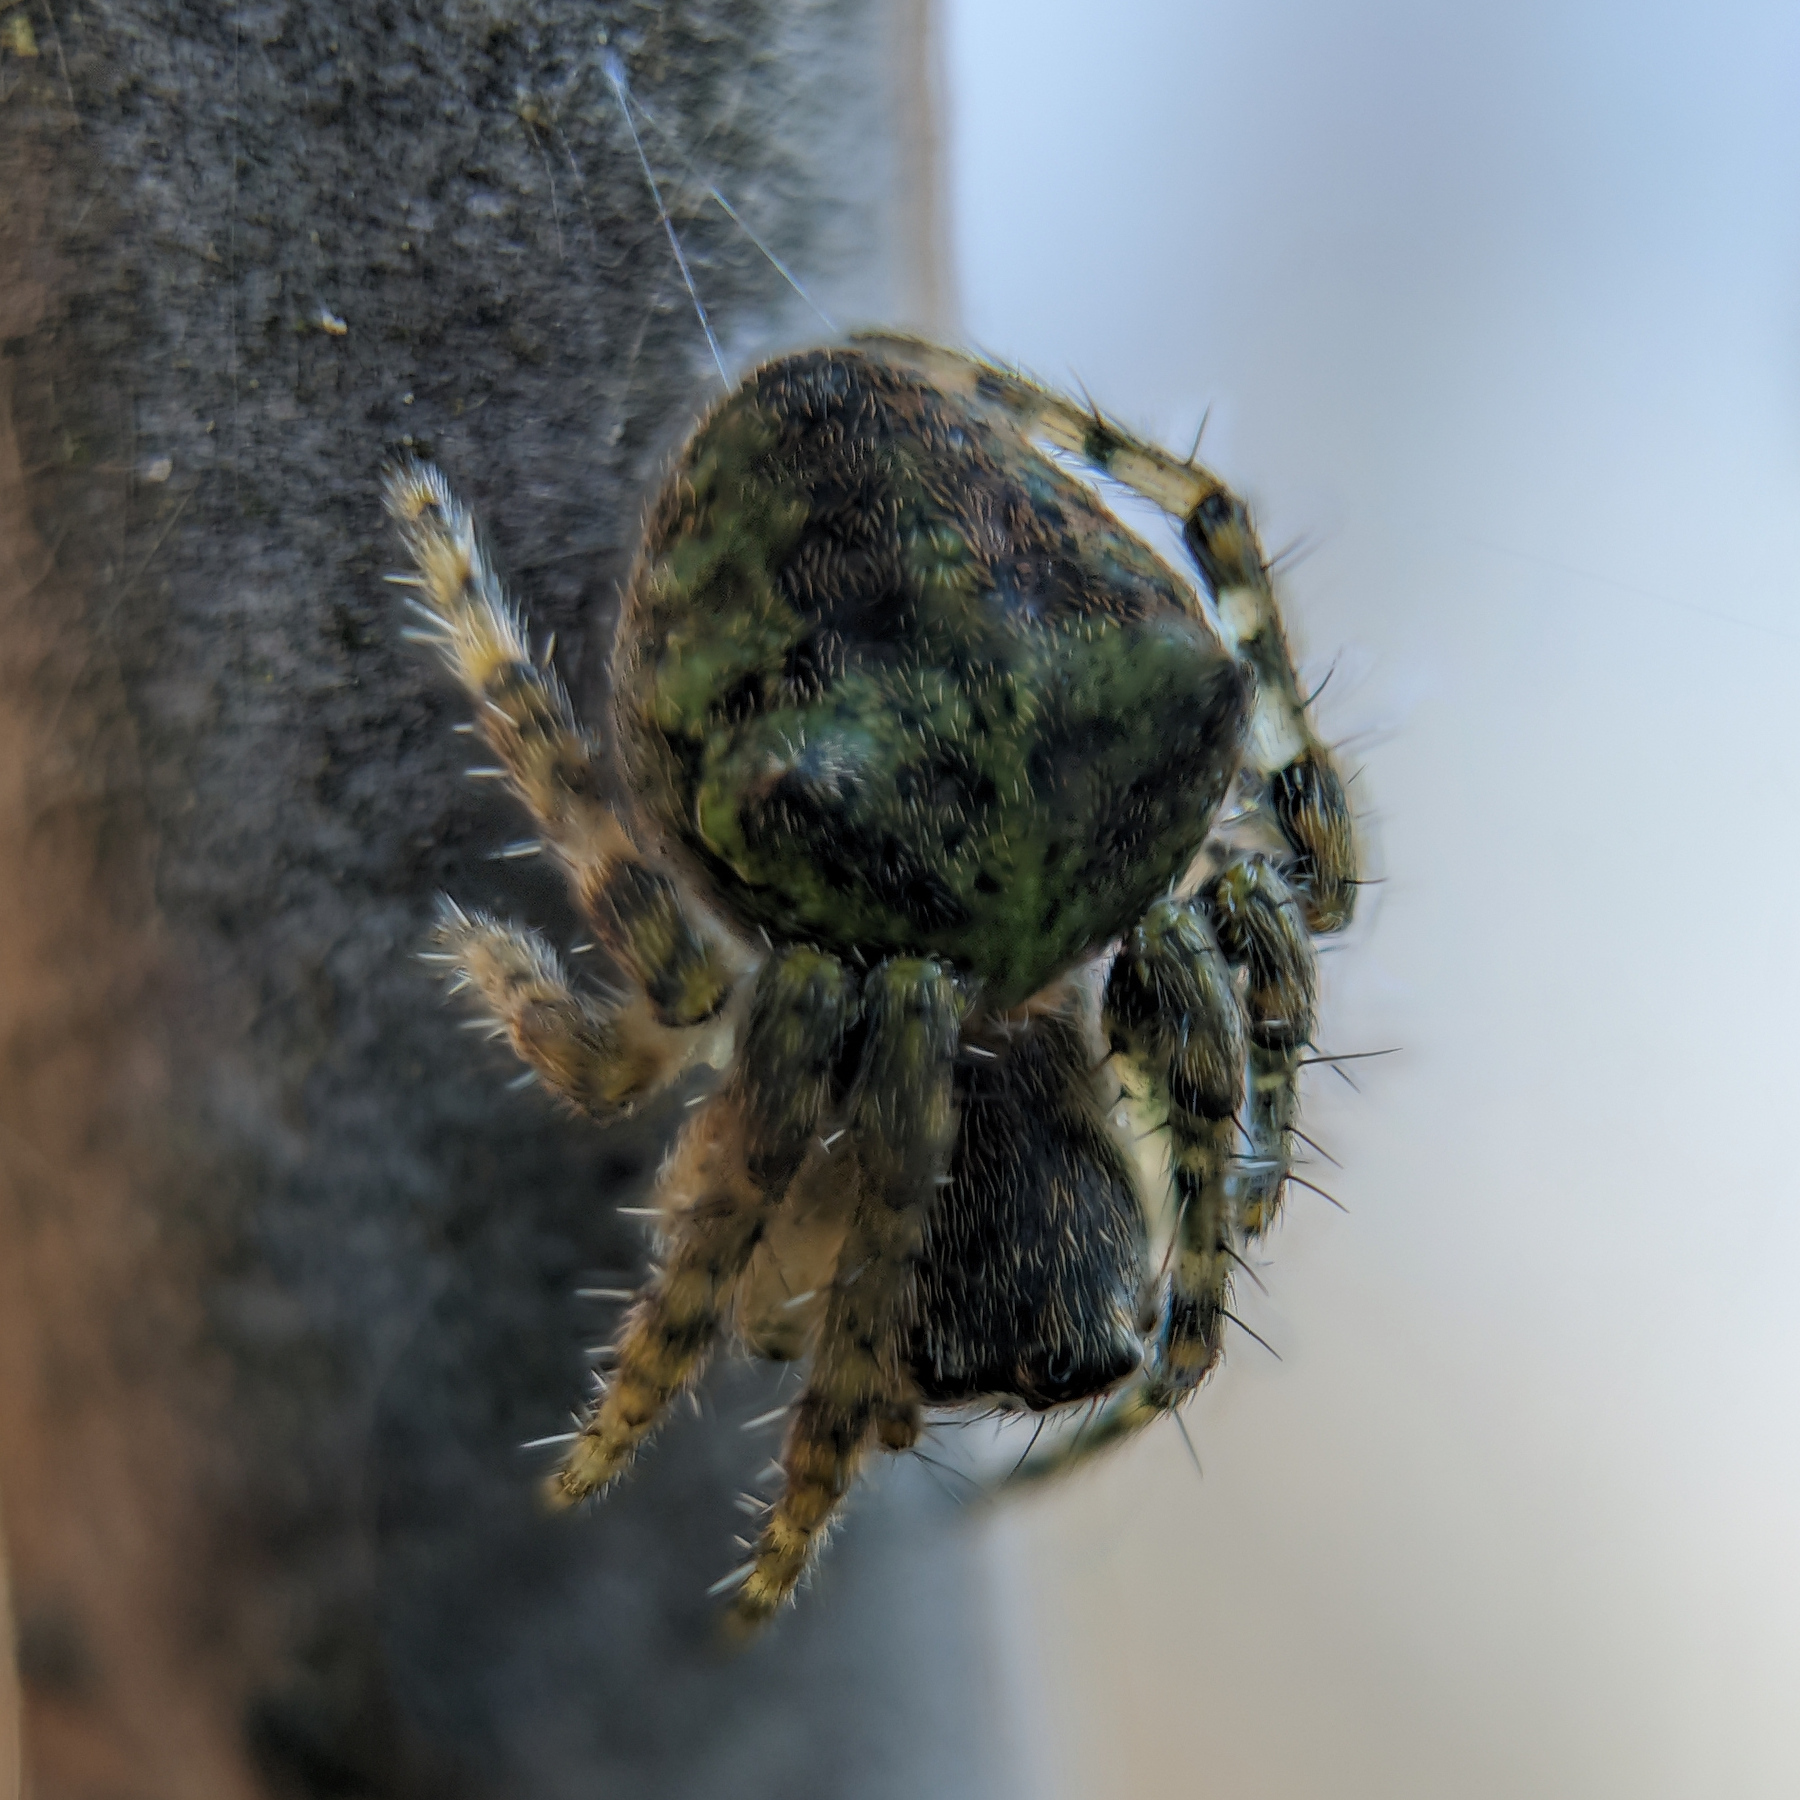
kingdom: Animalia
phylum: Arthropoda
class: Arachnida
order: Araneae
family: Araneidae
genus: Gibbaranea
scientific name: Gibbaranea gibbosa
